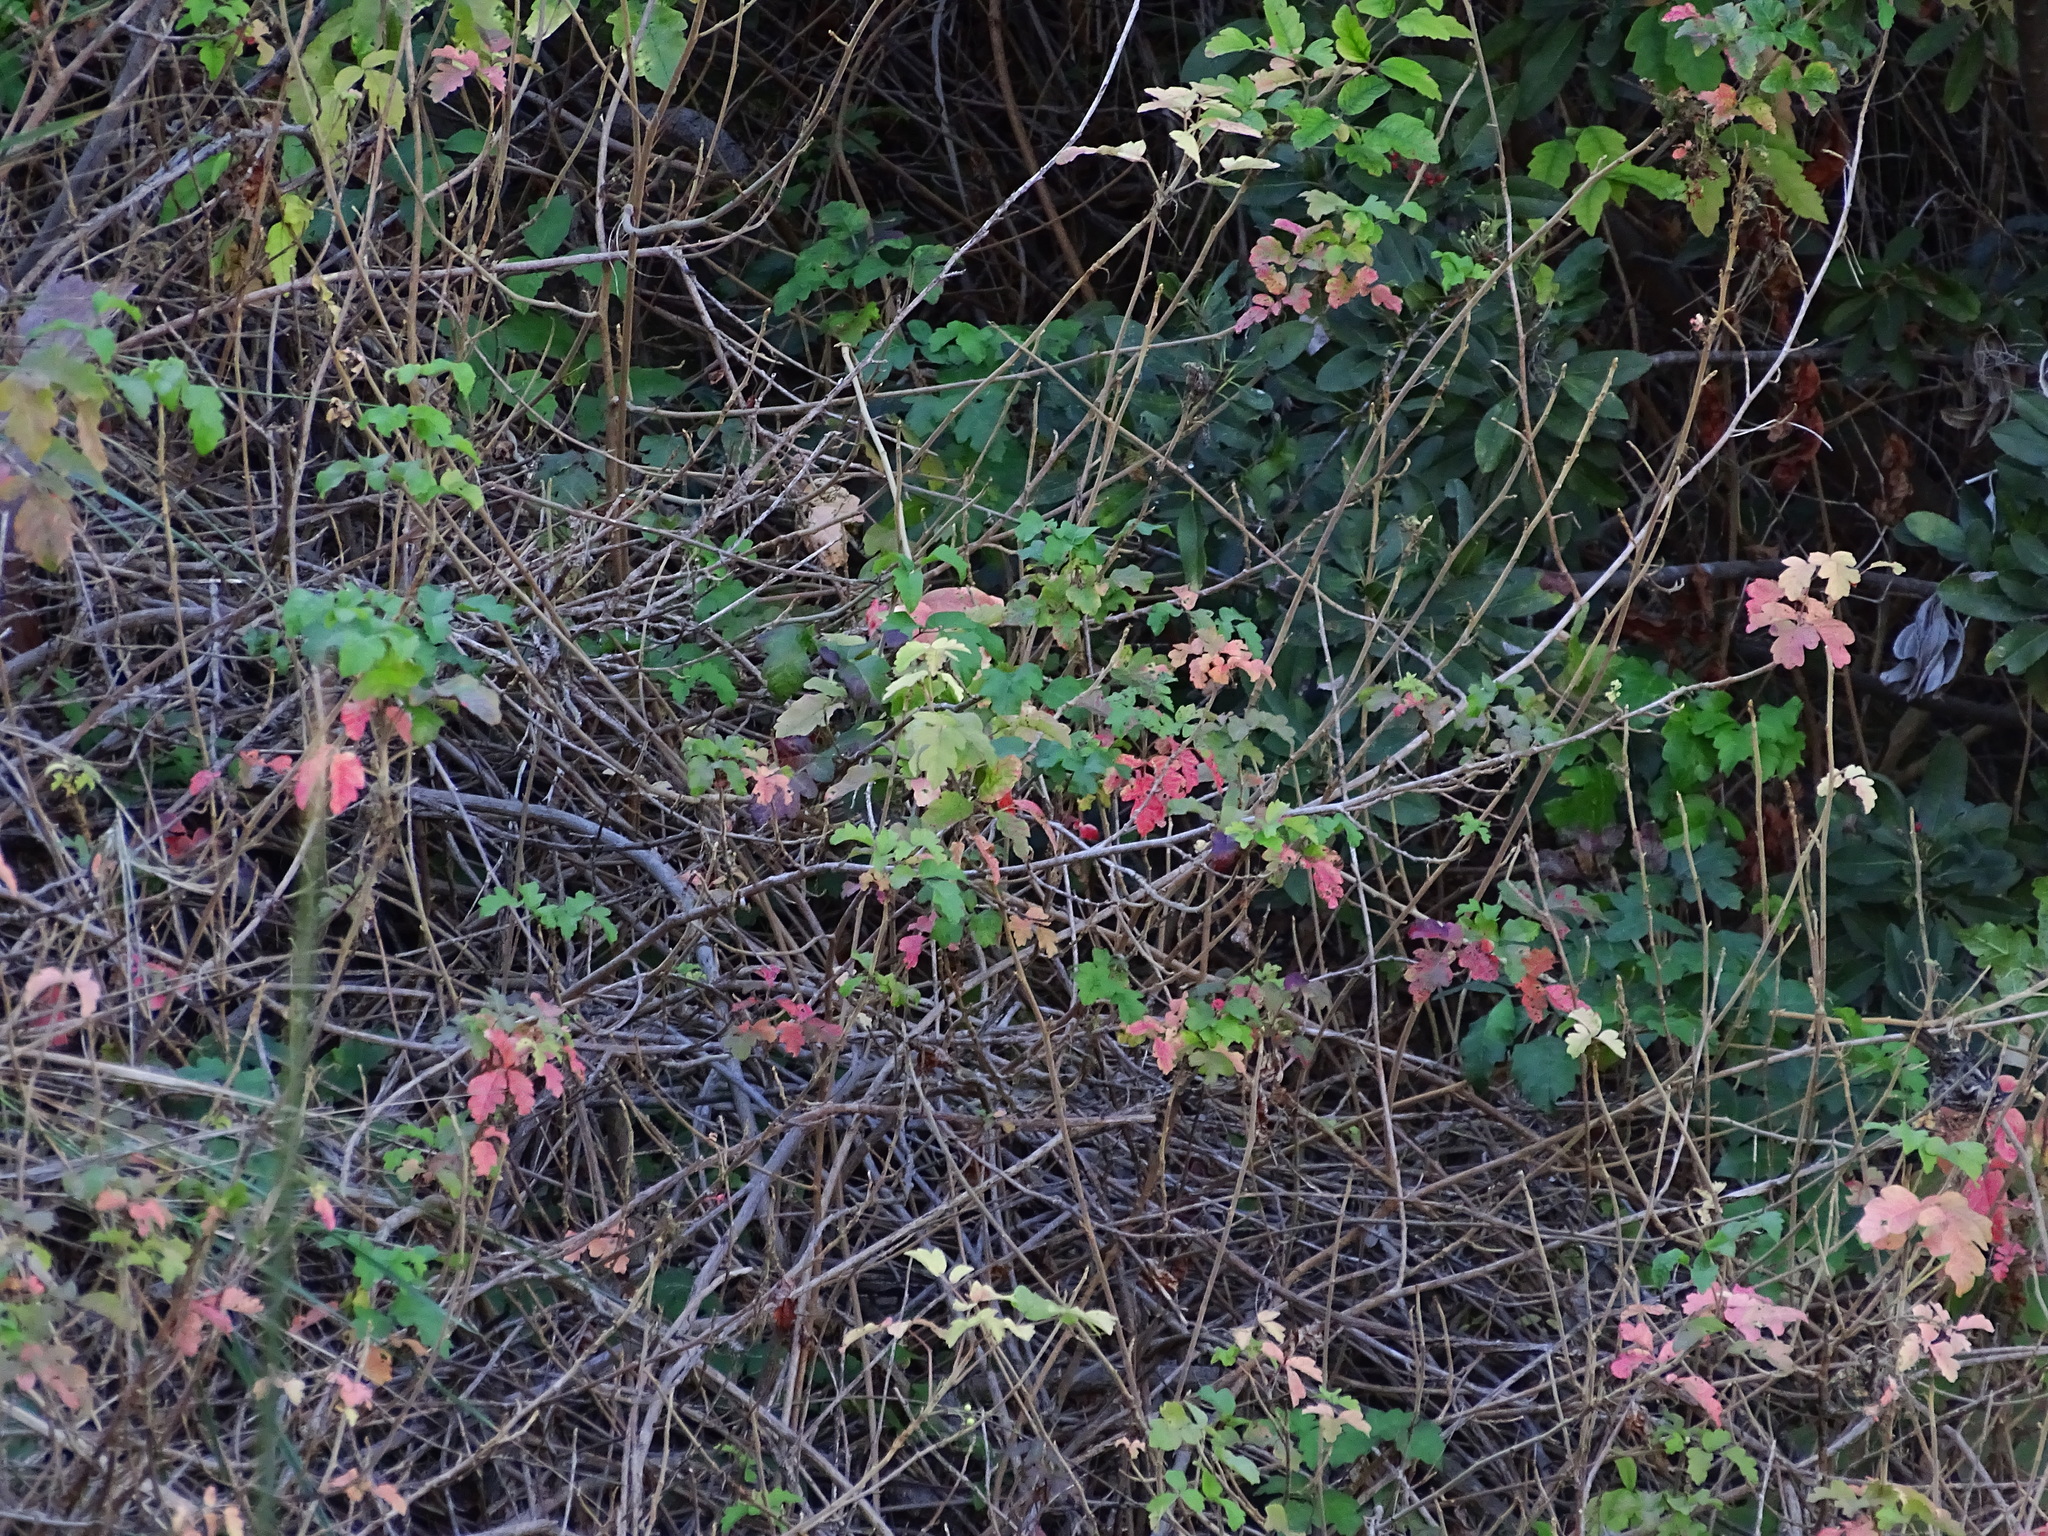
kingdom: Plantae
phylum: Tracheophyta
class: Magnoliopsida
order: Sapindales
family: Anacardiaceae
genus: Toxicodendron
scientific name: Toxicodendron diversilobum
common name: Pacific poison-oak
